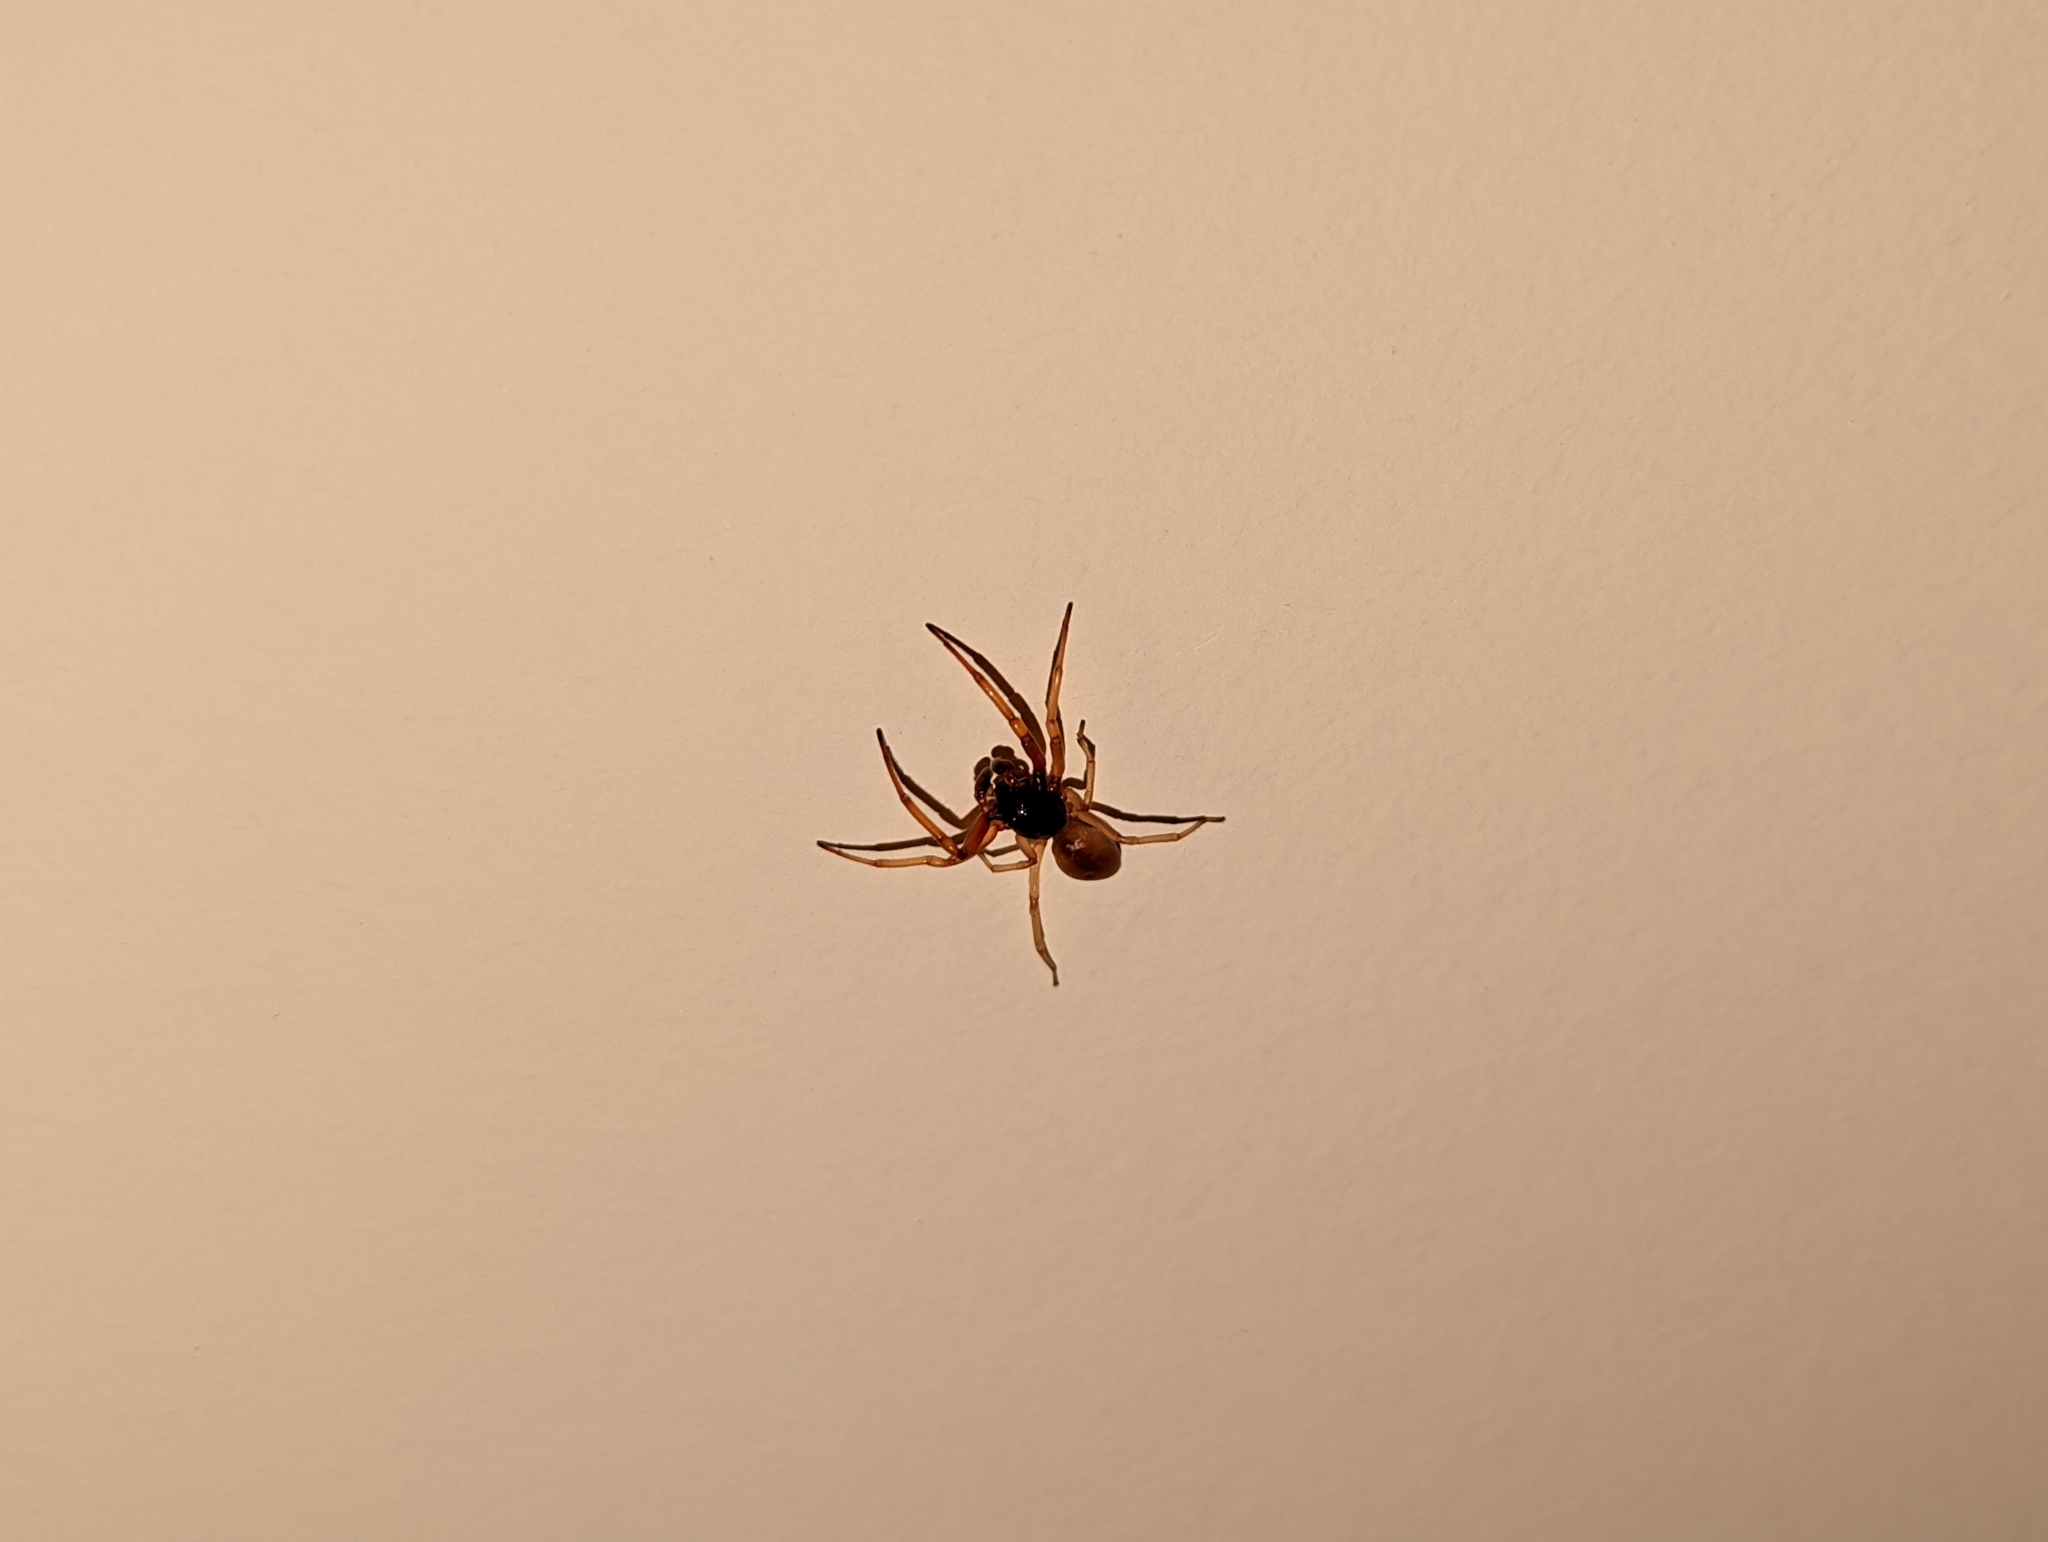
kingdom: Animalia
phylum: Arthropoda
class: Arachnida
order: Araneae
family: Trachelidae
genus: Trachelas
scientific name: Trachelas tranquillus
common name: Broad-faced sac spider
